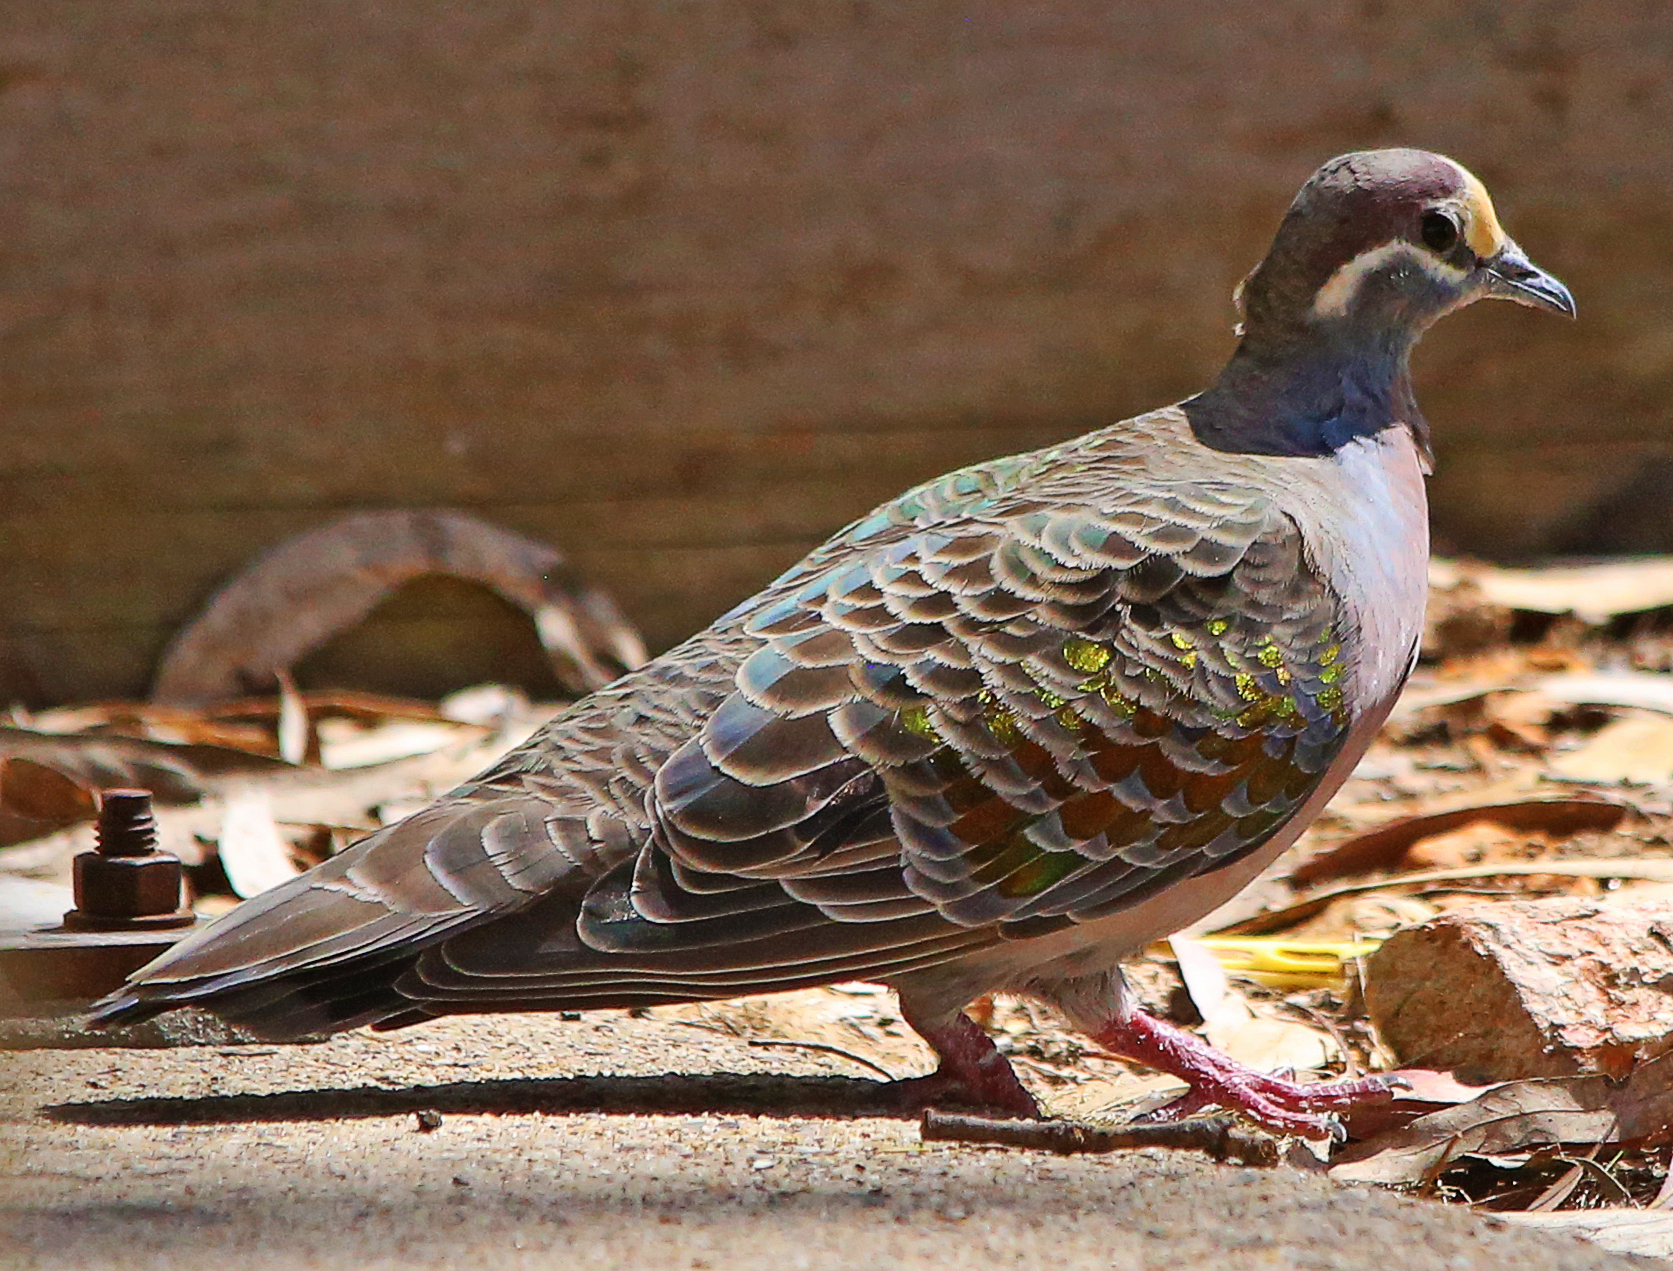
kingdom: Animalia
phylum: Chordata
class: Aves
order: Columbiformes
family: Columbidae
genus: Phaps
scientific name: Phaps chalcoptera
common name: Common bronzewing
